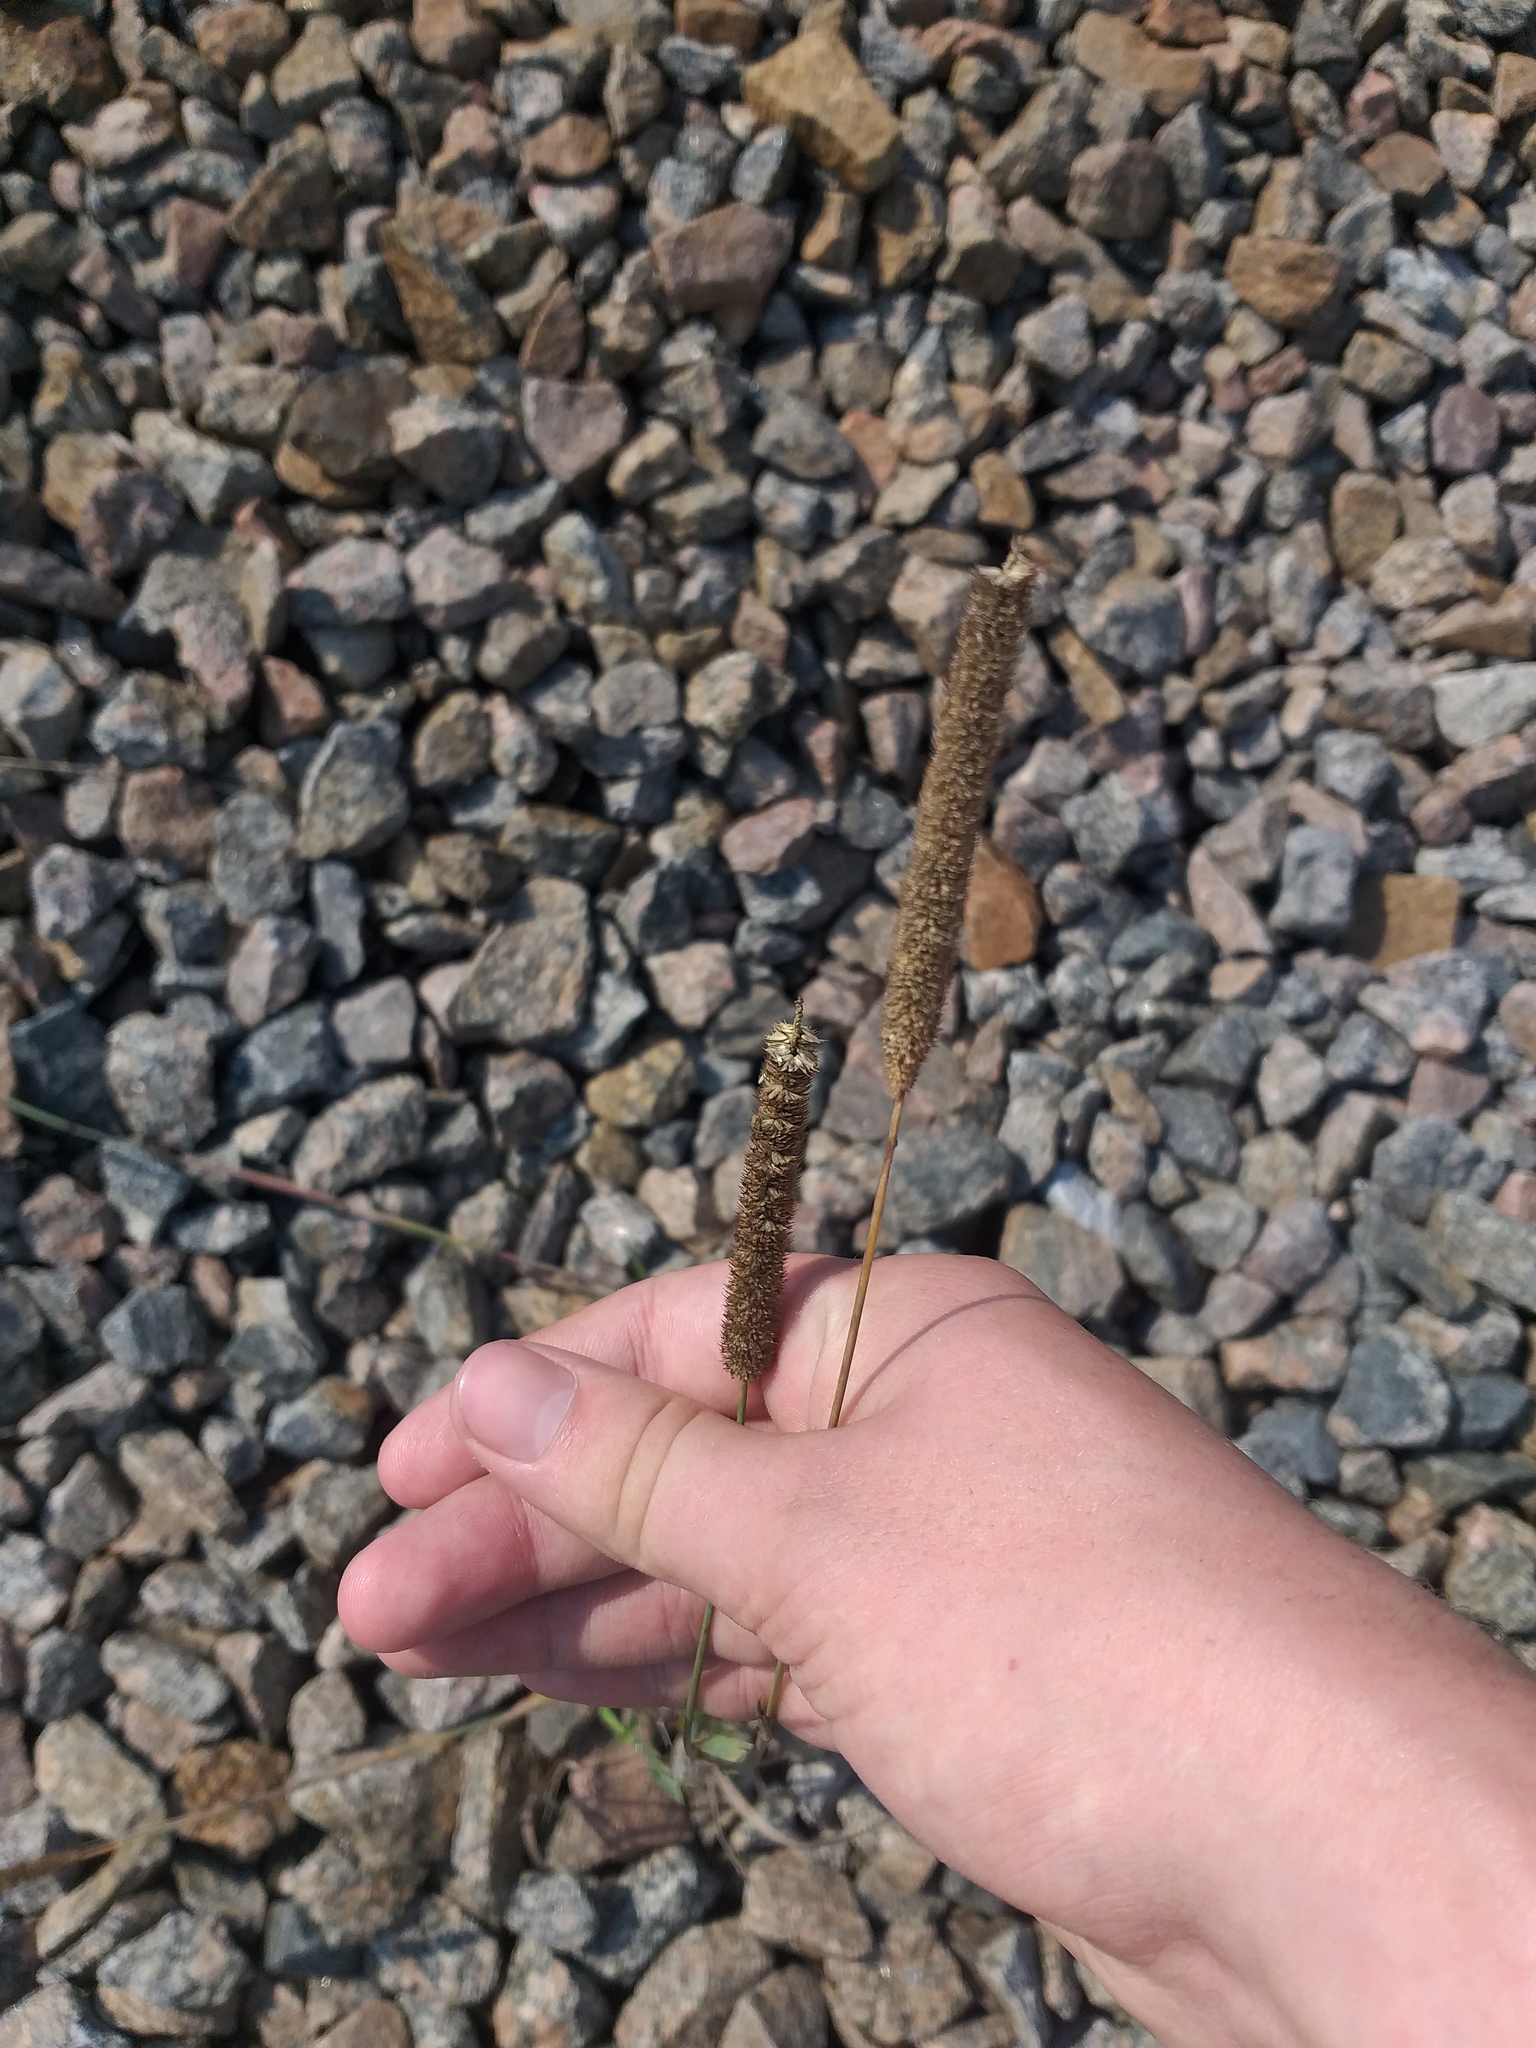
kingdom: Plantae
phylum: Tracheophyta
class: Liliopsida
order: Poales
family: Poaceae
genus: Phleum
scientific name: Phleum pratense
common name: Timothy grass
